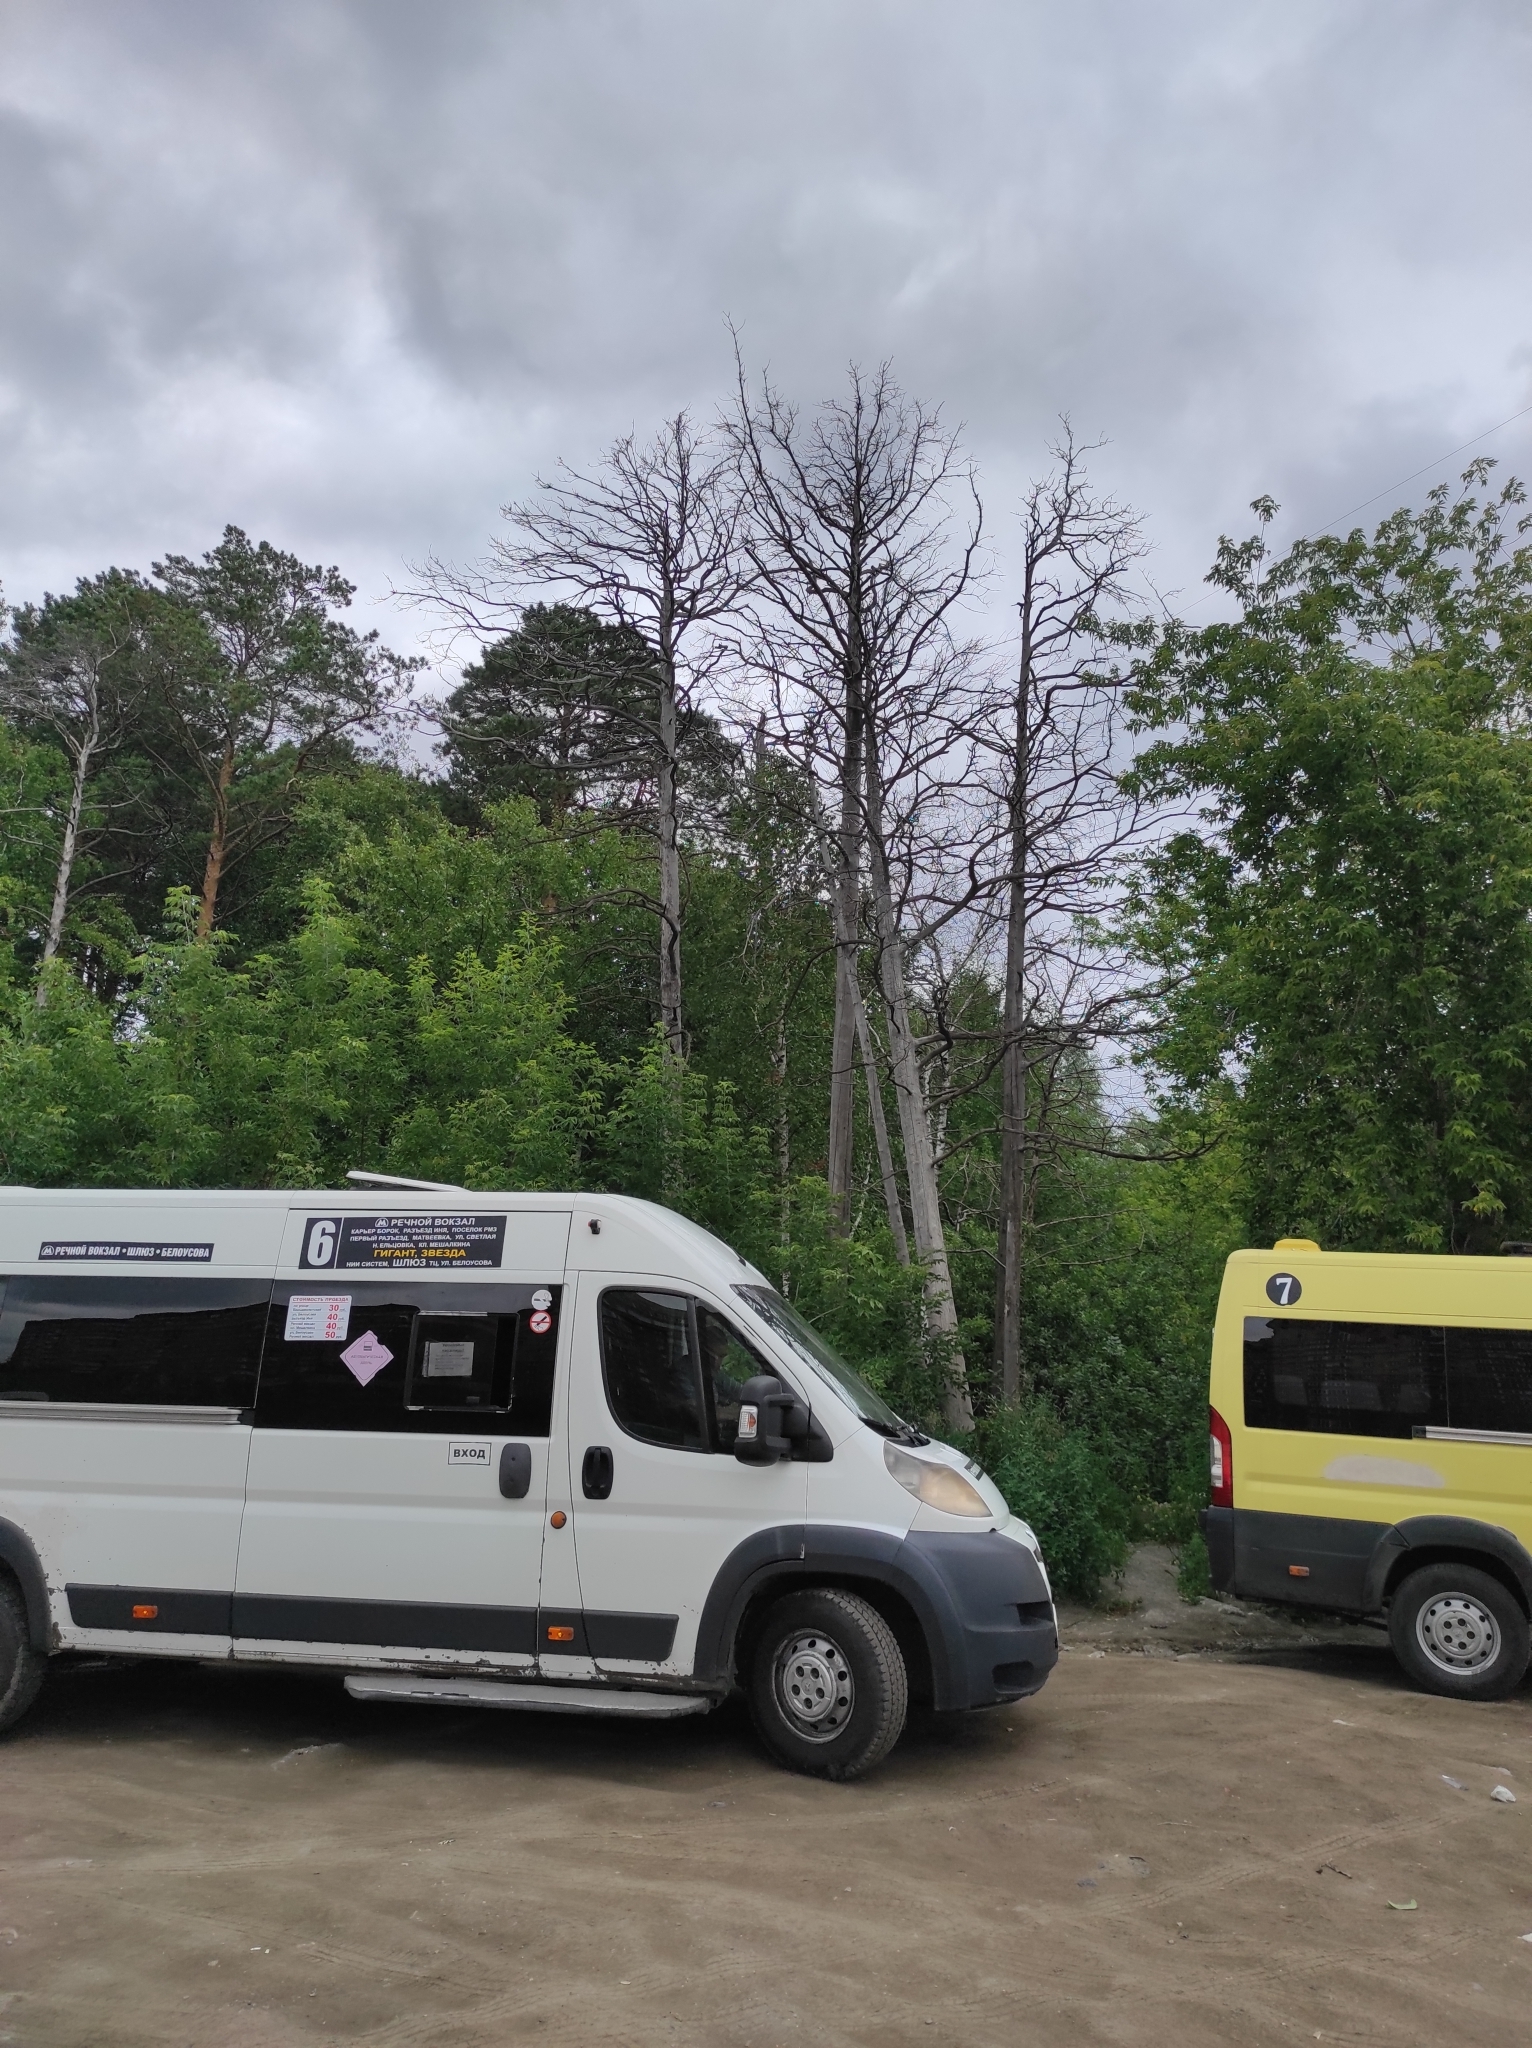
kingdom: Plantae
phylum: Tracheophyta
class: Pinopsida
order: Pinales
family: Pinaceae
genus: Pinus
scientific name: Pinus sylvestris
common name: Scots pine
